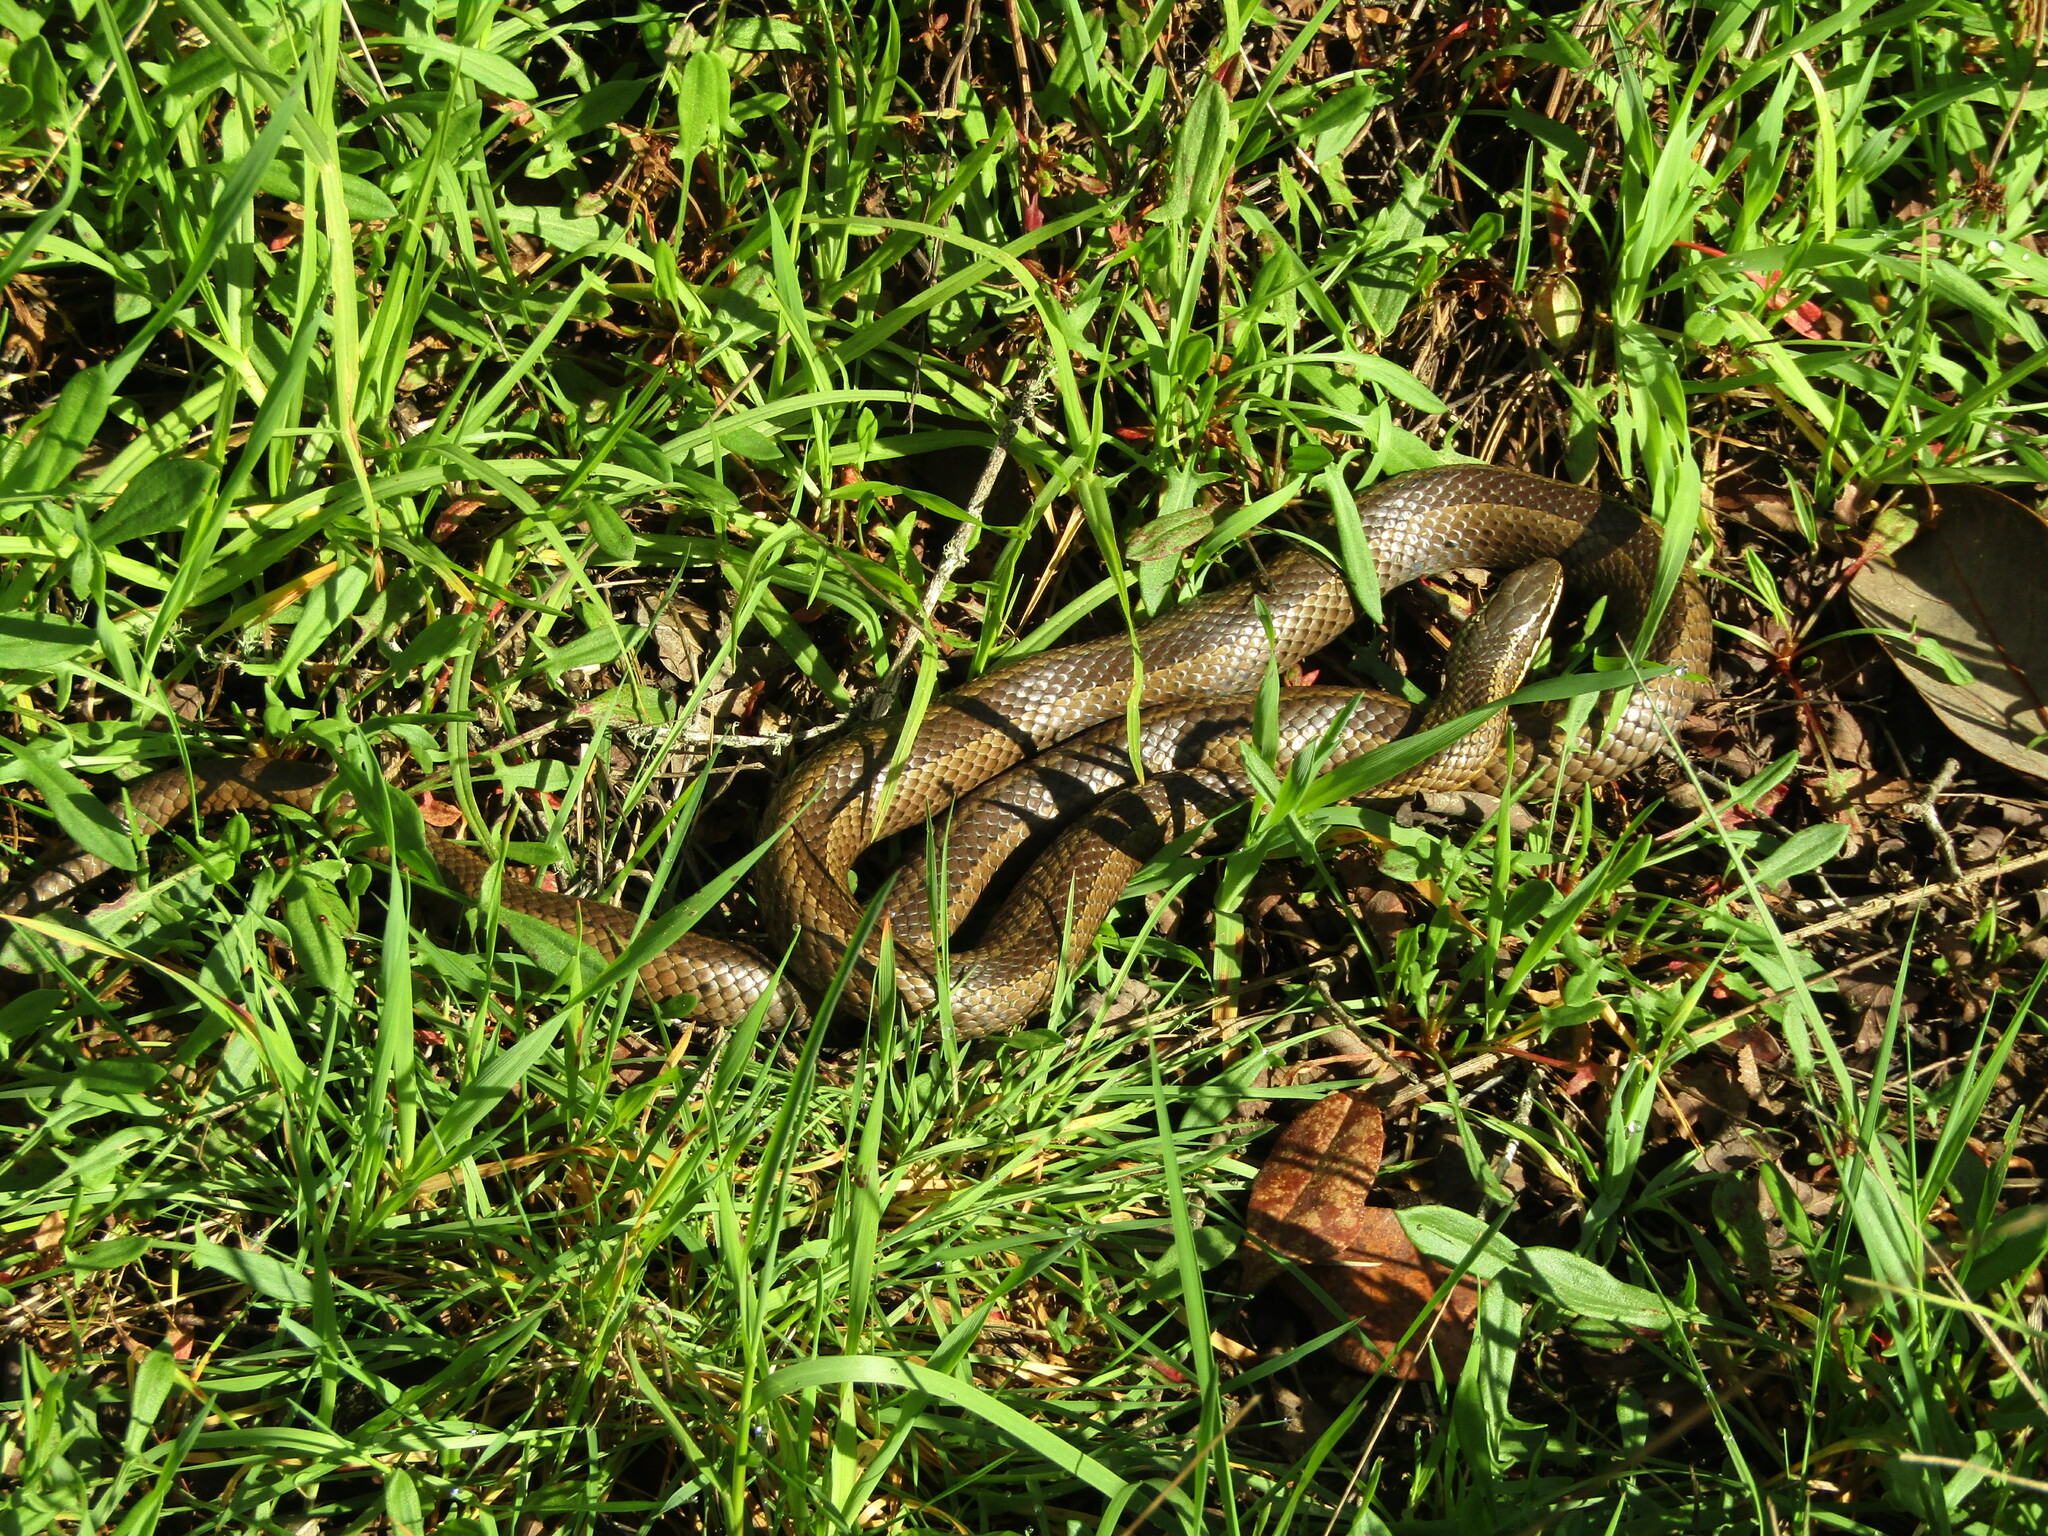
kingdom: Animalia
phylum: Chordata
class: Squamata
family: Colubridae
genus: Philodryas
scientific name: Philodryas chamissonis
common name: Chilean green racer
